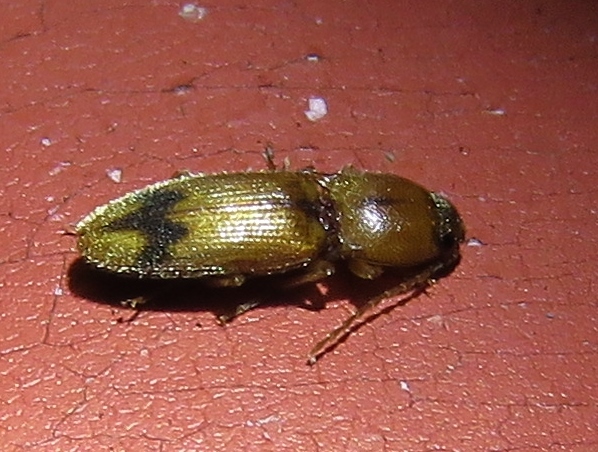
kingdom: Animalia
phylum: Arthropoda
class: Insecta
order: Coleoptera
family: Elateridae
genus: Monocrepidius
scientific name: Monocrepidius browni
